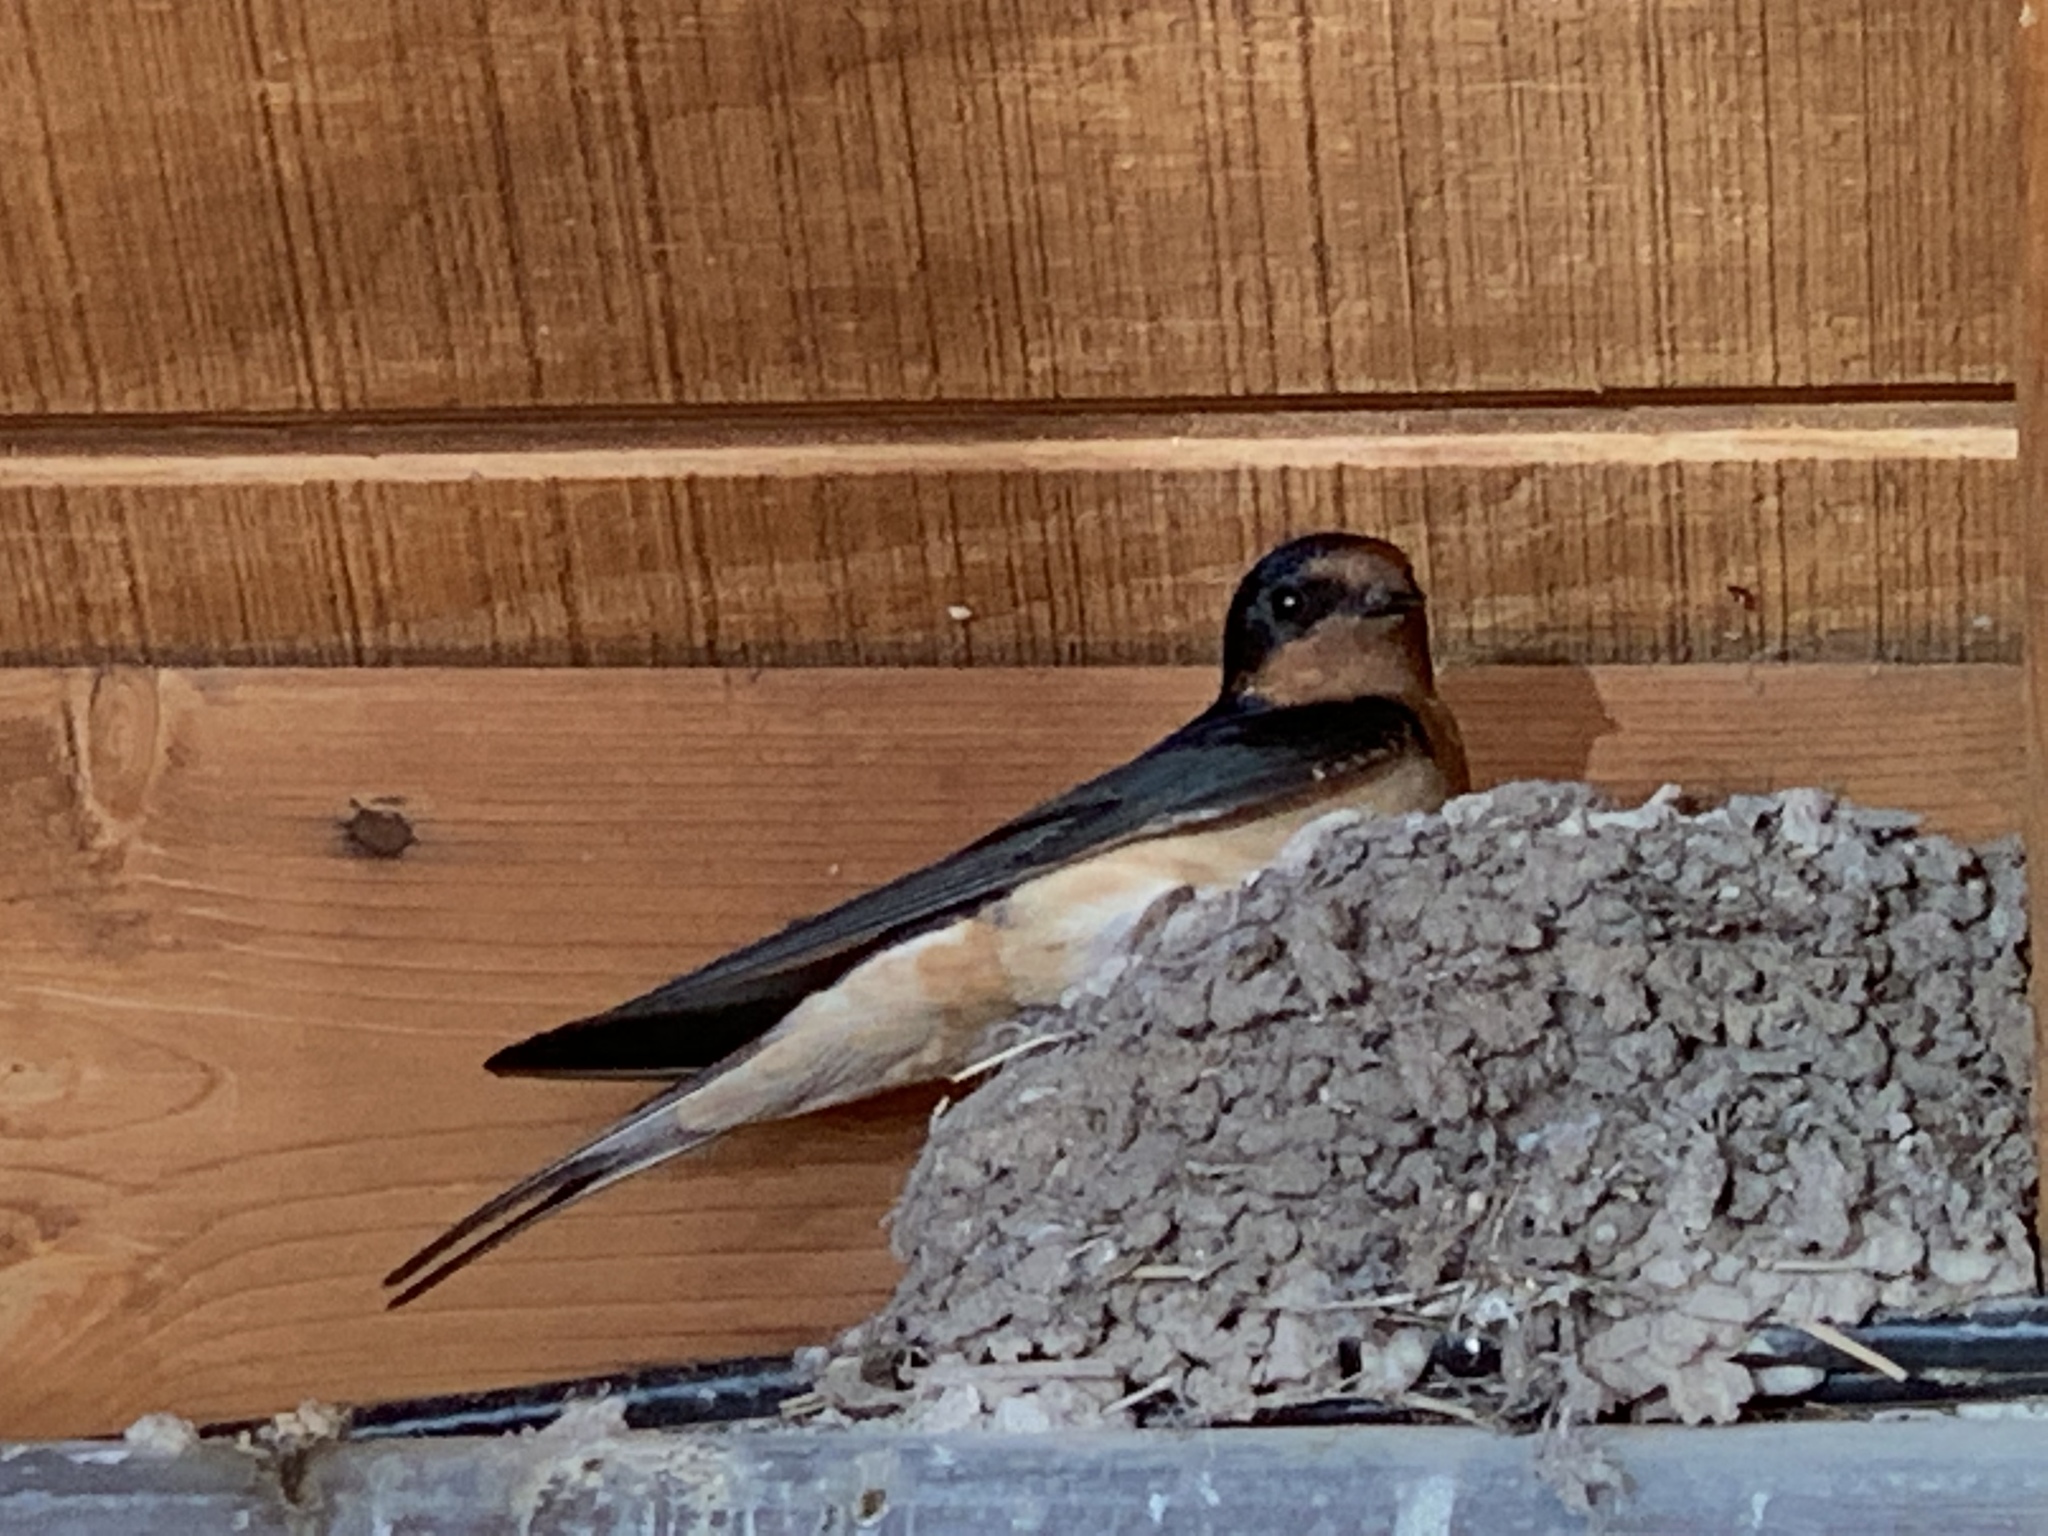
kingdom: Animalia
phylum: Chordata
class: Aves
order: Passeriformes
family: Hirundinidae
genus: Hirundo
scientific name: Hirundo rustica
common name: Barn swallow
